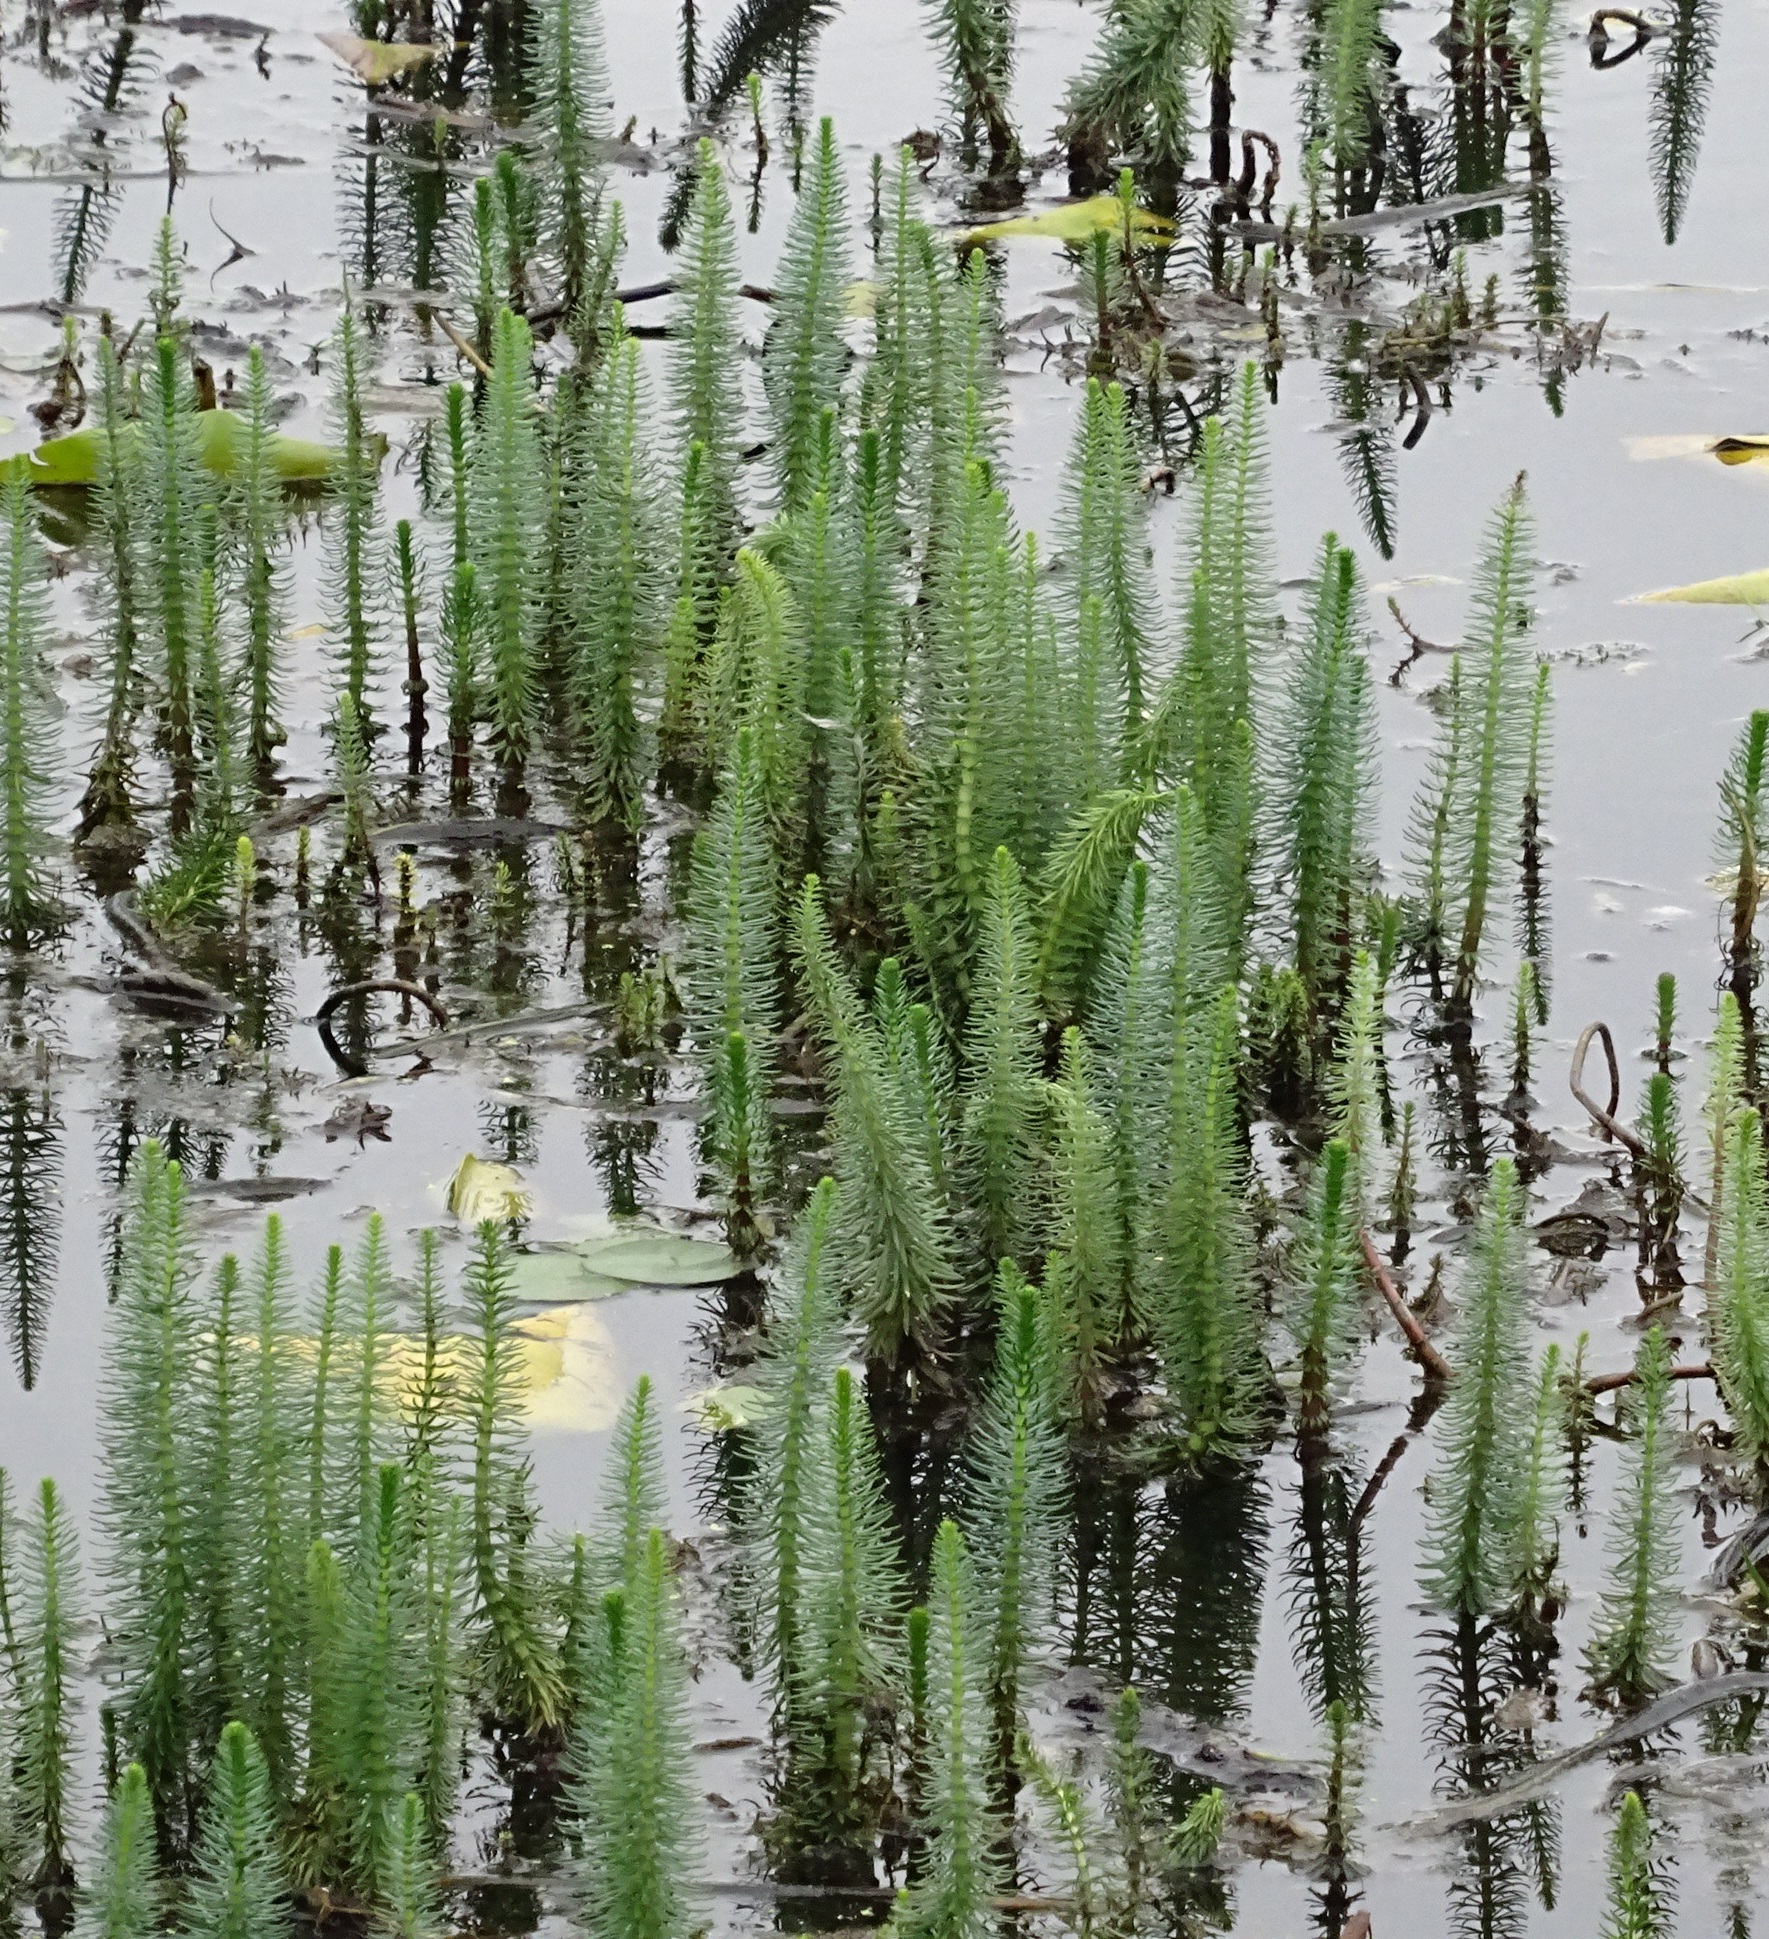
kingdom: Plantae
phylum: Tracheophyta
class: Magnoliopsida
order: Lamiales
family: Plantaginaceae
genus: Hippuris
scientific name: Hippuris vulgaris
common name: Mare's-tail
